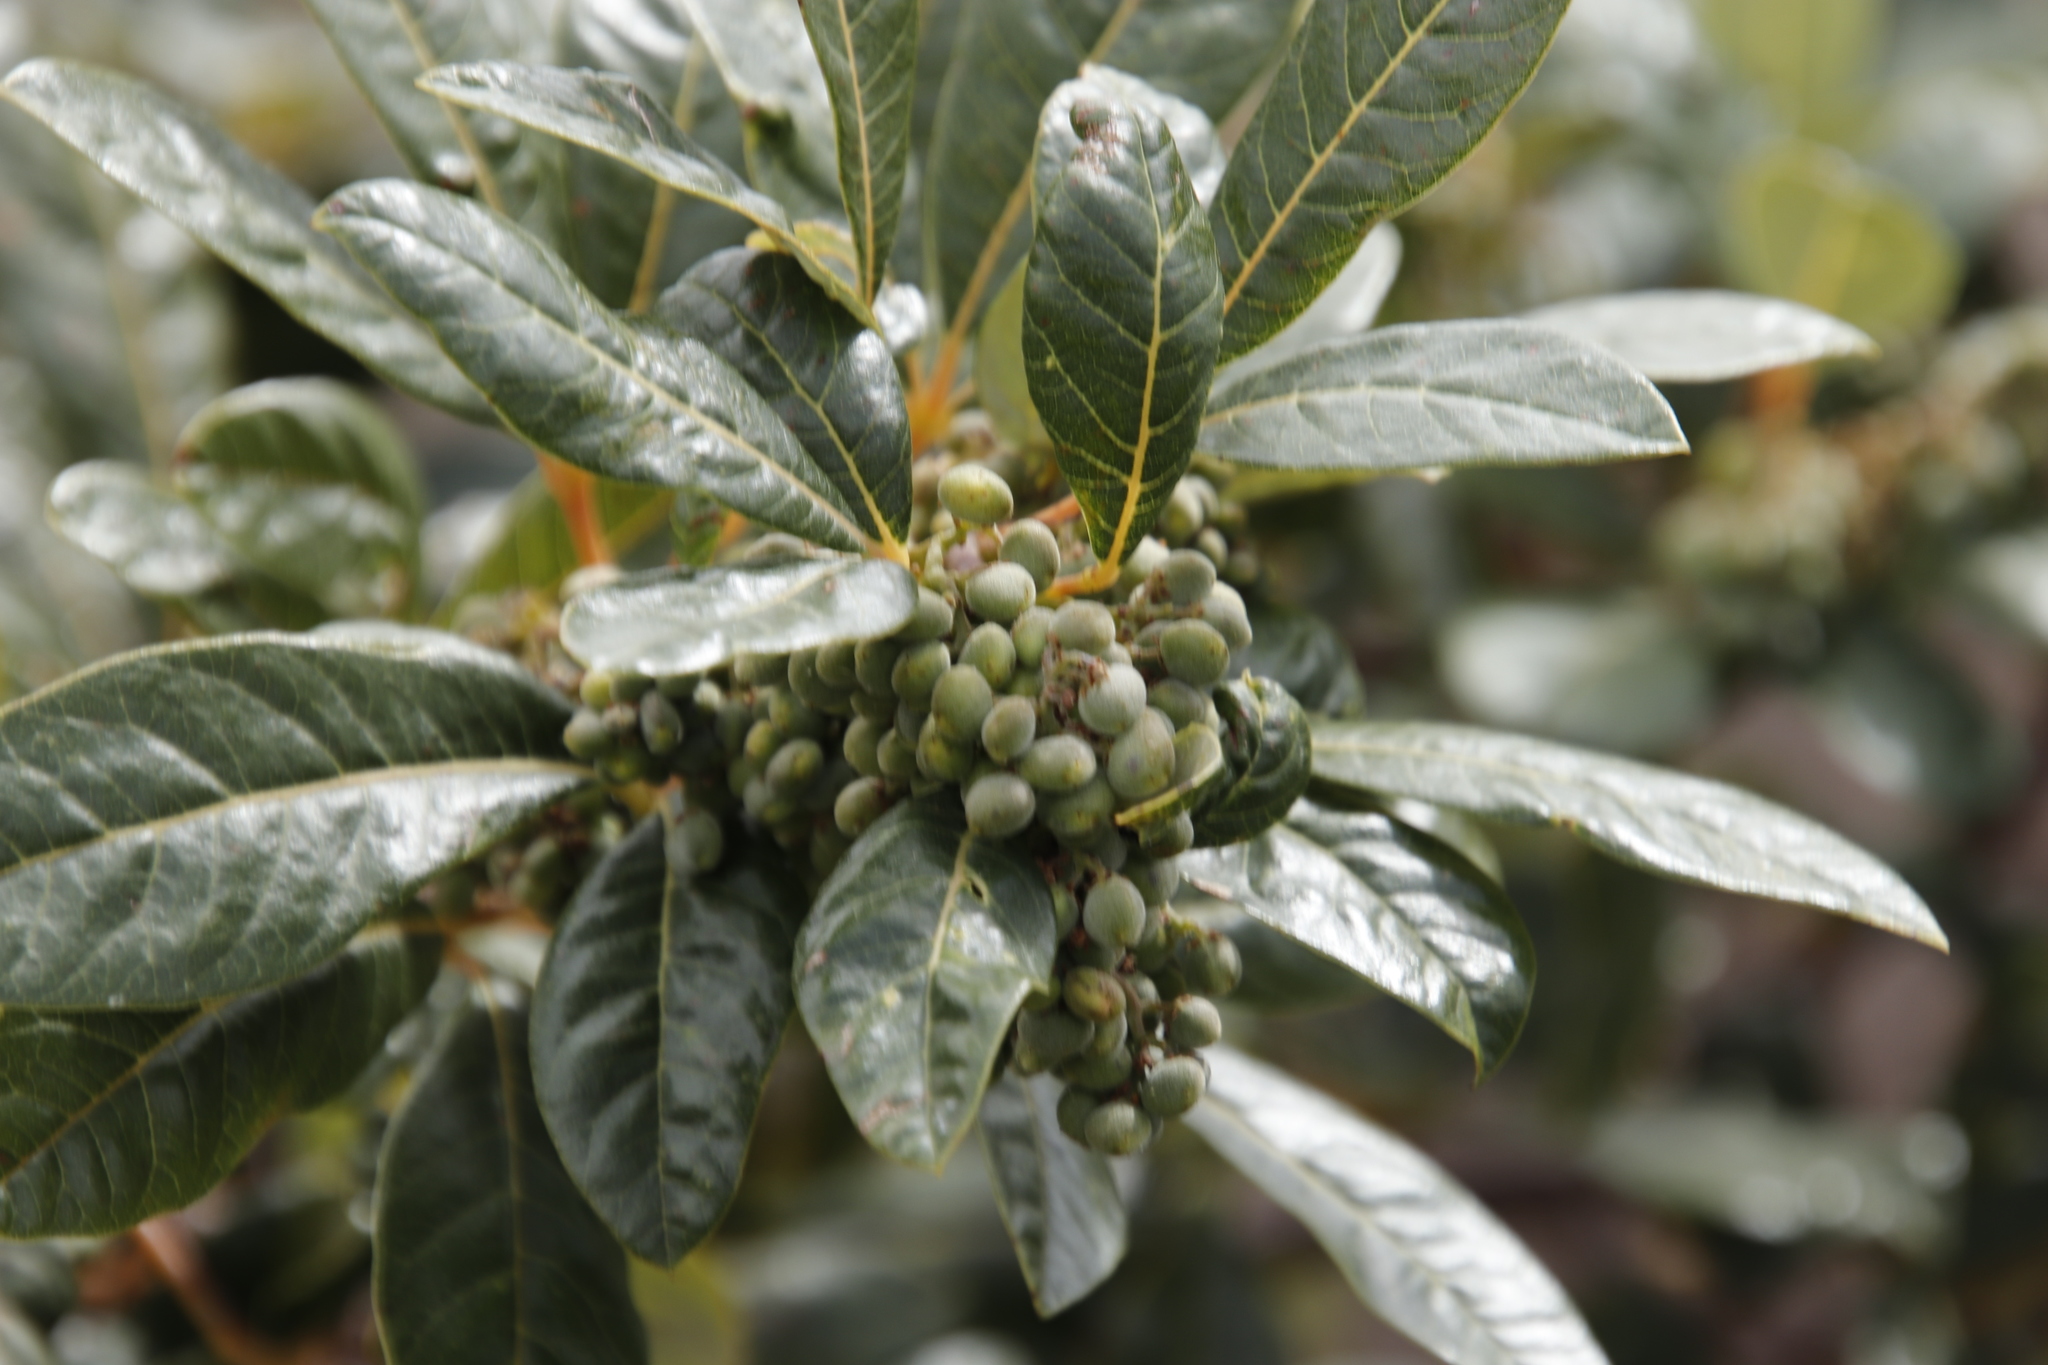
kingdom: Plantae
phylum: Tracheophyta
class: Magnoliopsida
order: Sapindales
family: Anacardiaceae
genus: Searsia
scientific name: Searsia tomentosa
